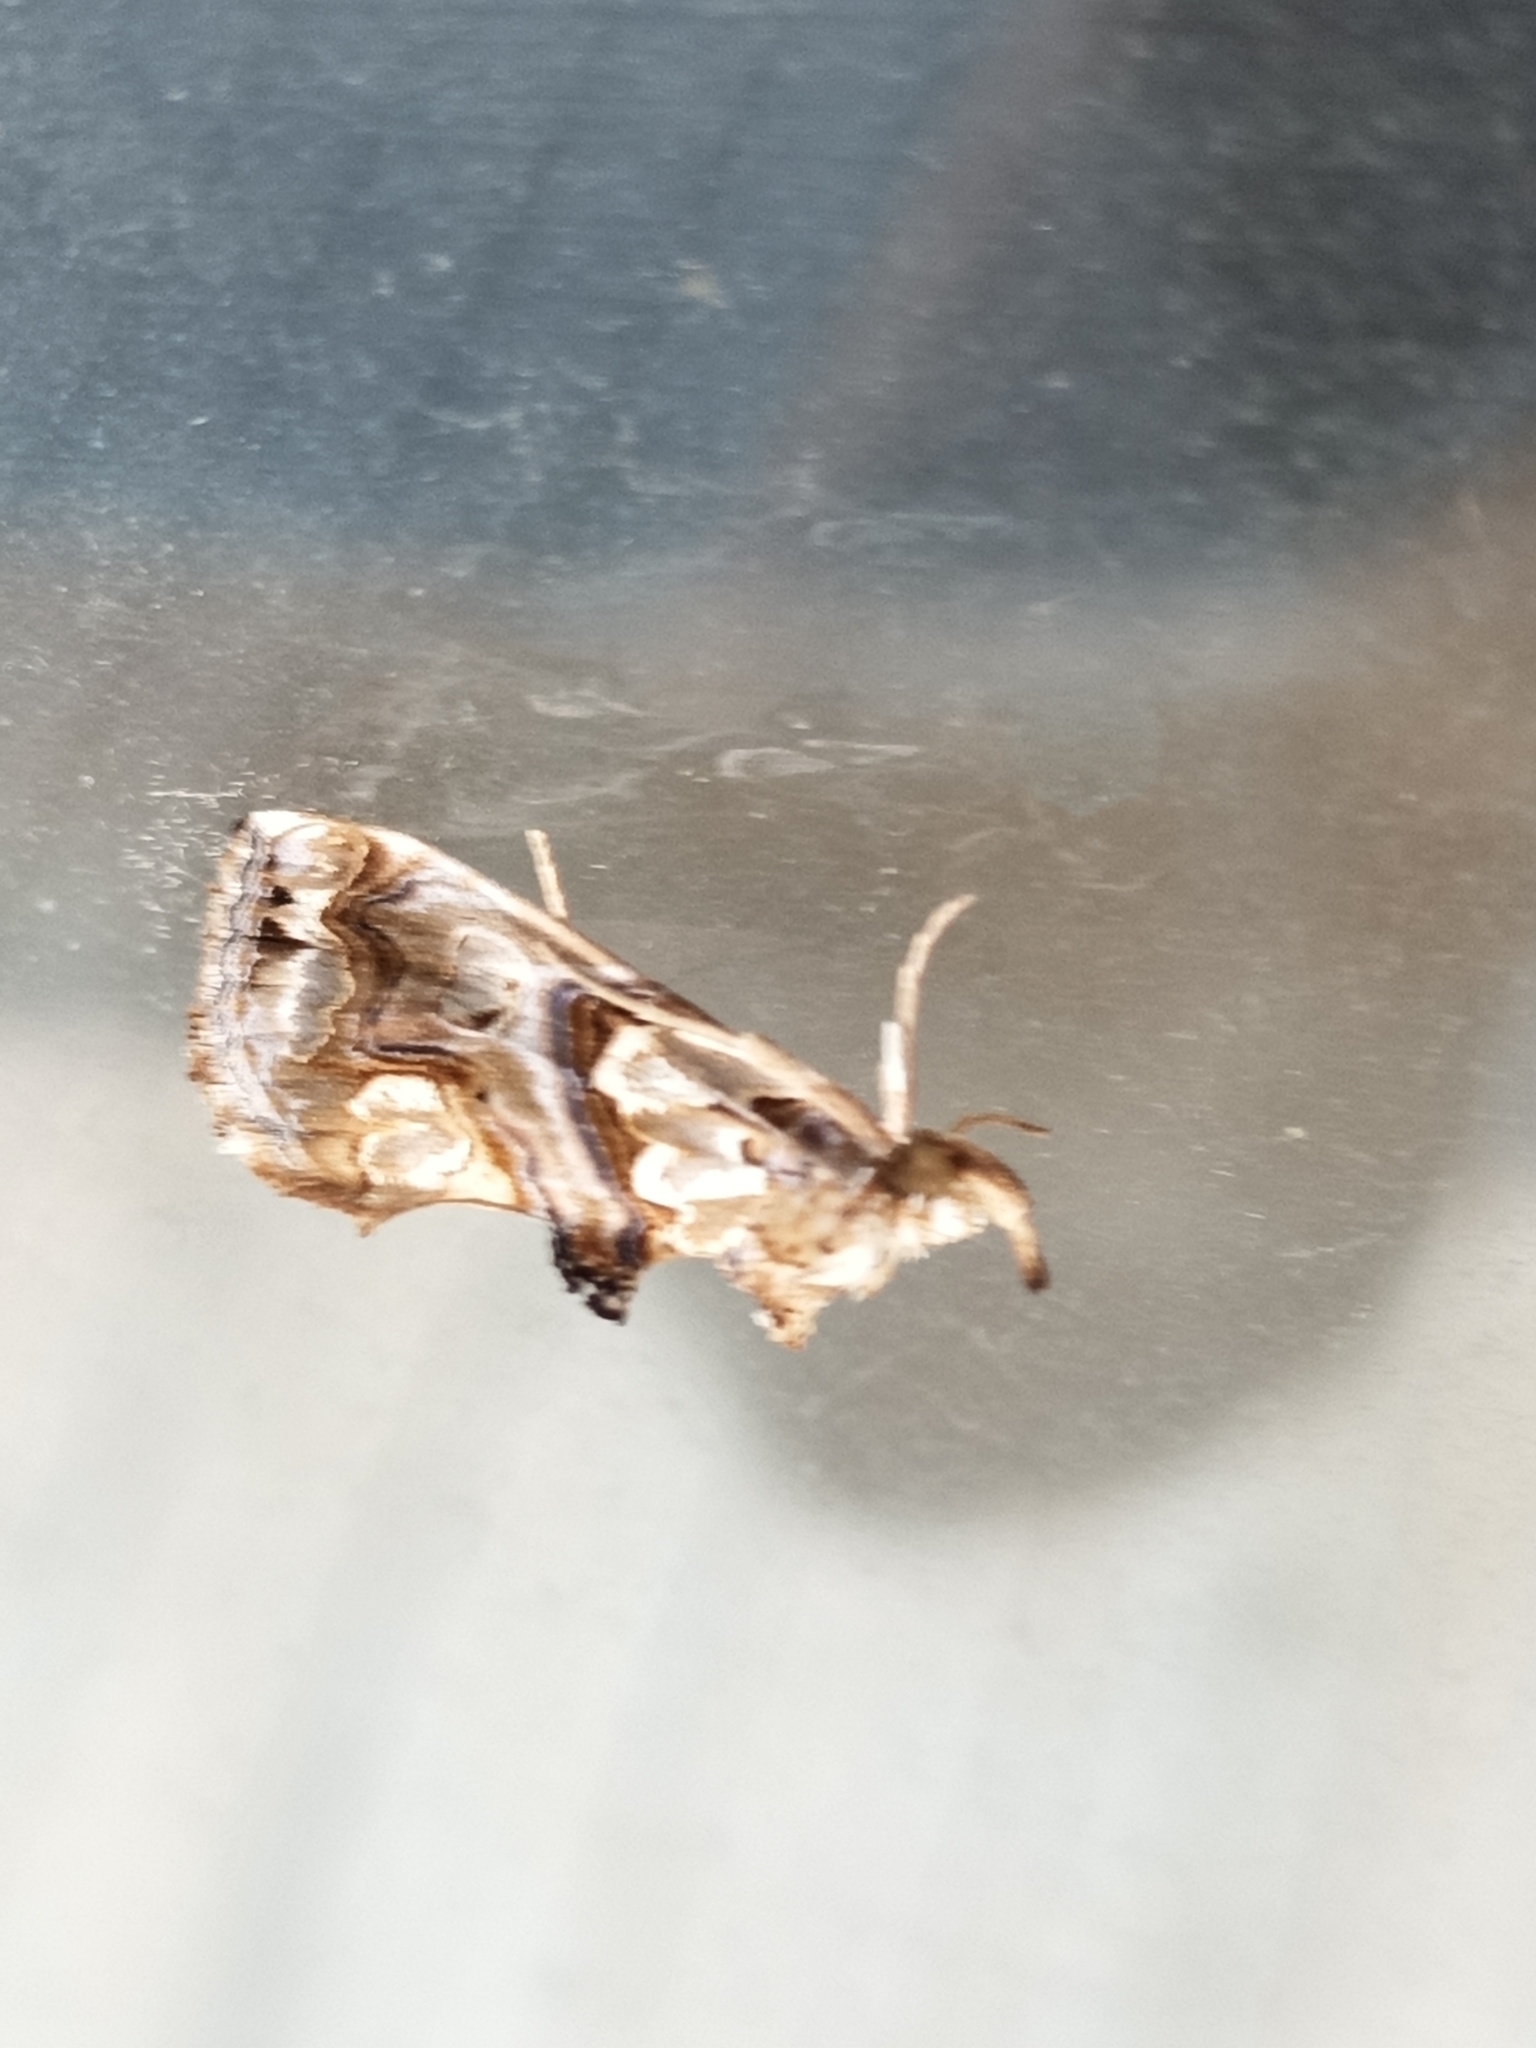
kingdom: Animalia
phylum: Arthropoda
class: Insecta
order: Lepidoptera
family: Erebidae
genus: Plusiodonta
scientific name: Plusiodonta compressipalpis
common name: Moonseed moth
